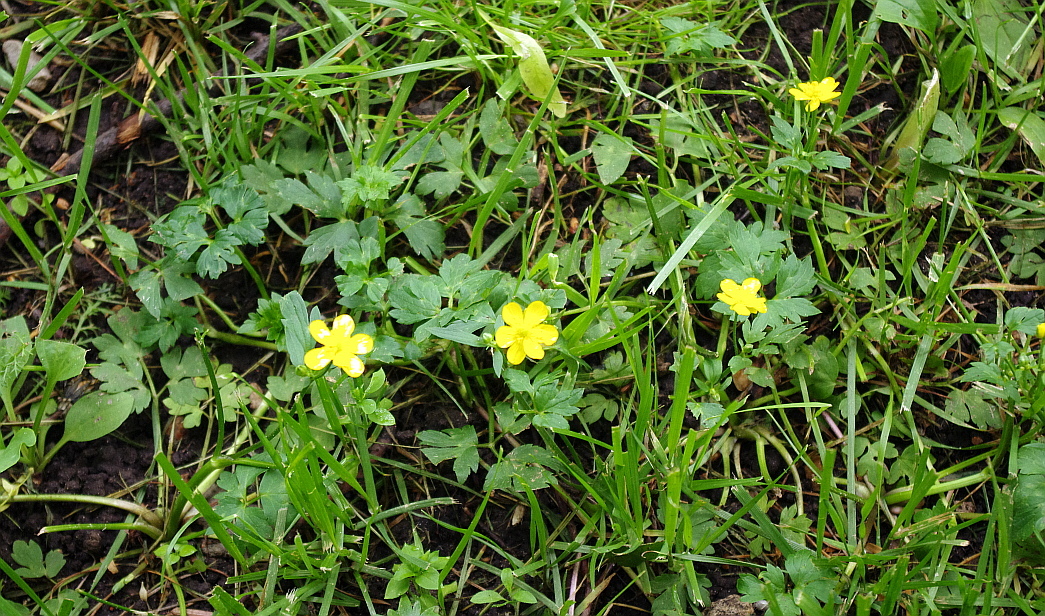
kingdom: Plantae
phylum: Tracheophyta
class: Magnoliopsida
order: Ranunculales
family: Ranunculaceae
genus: Ranunculus
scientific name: Ranunculus repens
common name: Creeping buttercup
